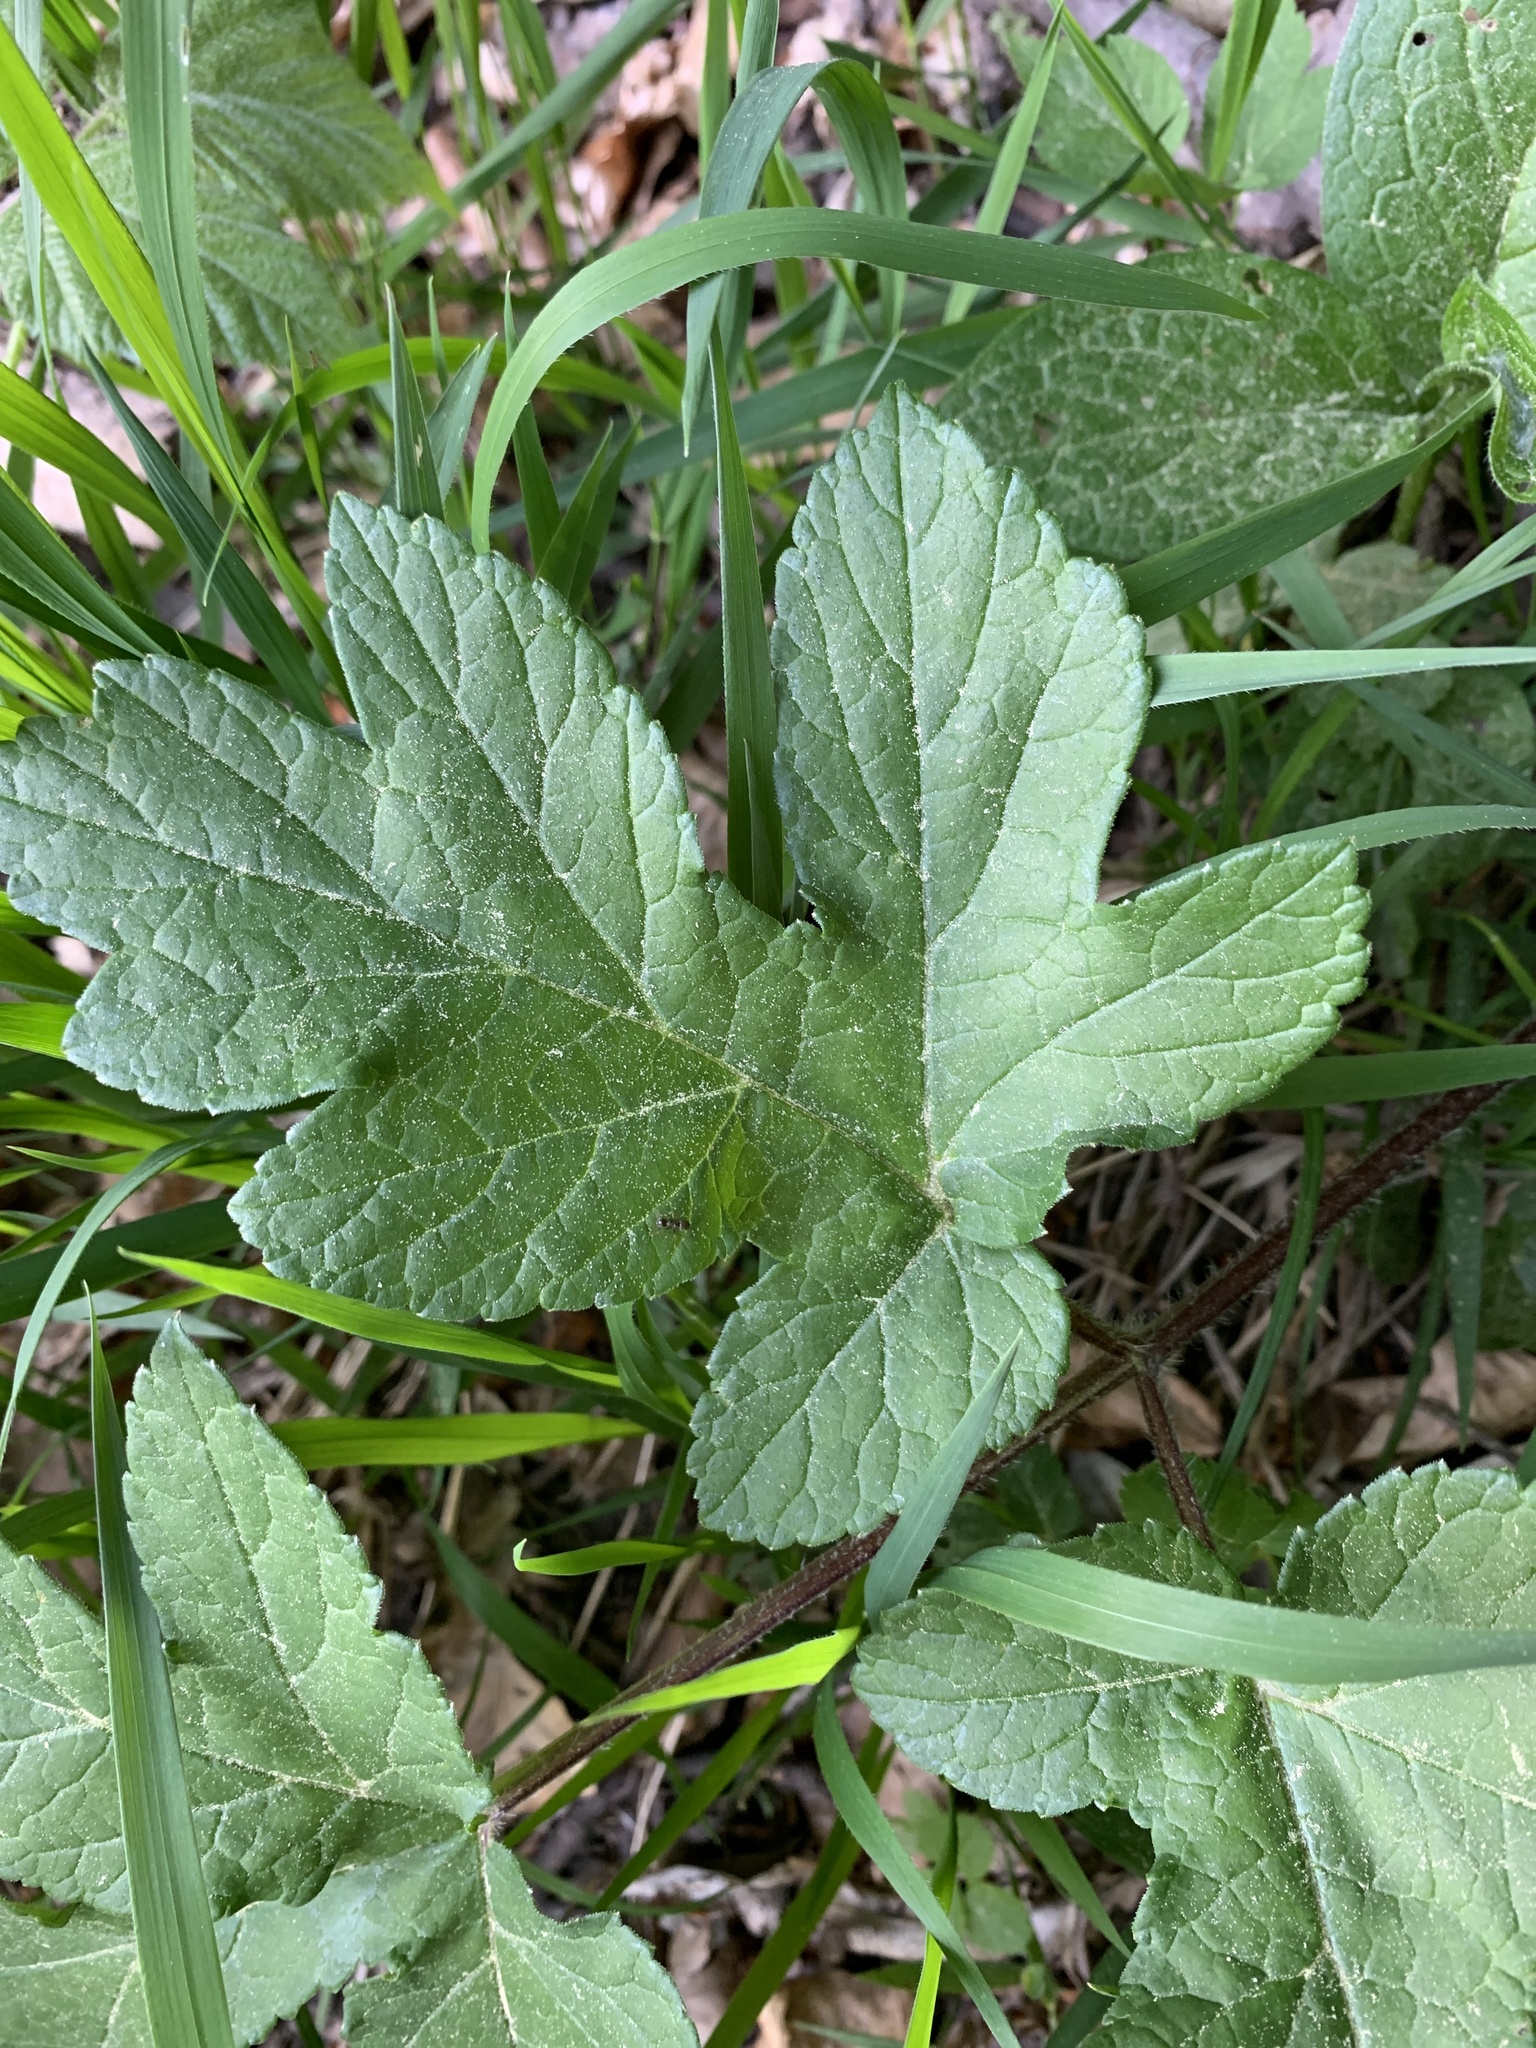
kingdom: Plantae
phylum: Tracheophyta
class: Magnoliopsida
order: Apiales
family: Apiaceae
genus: Heracleum
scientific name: Heracleum sphondylium
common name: Hogweed
